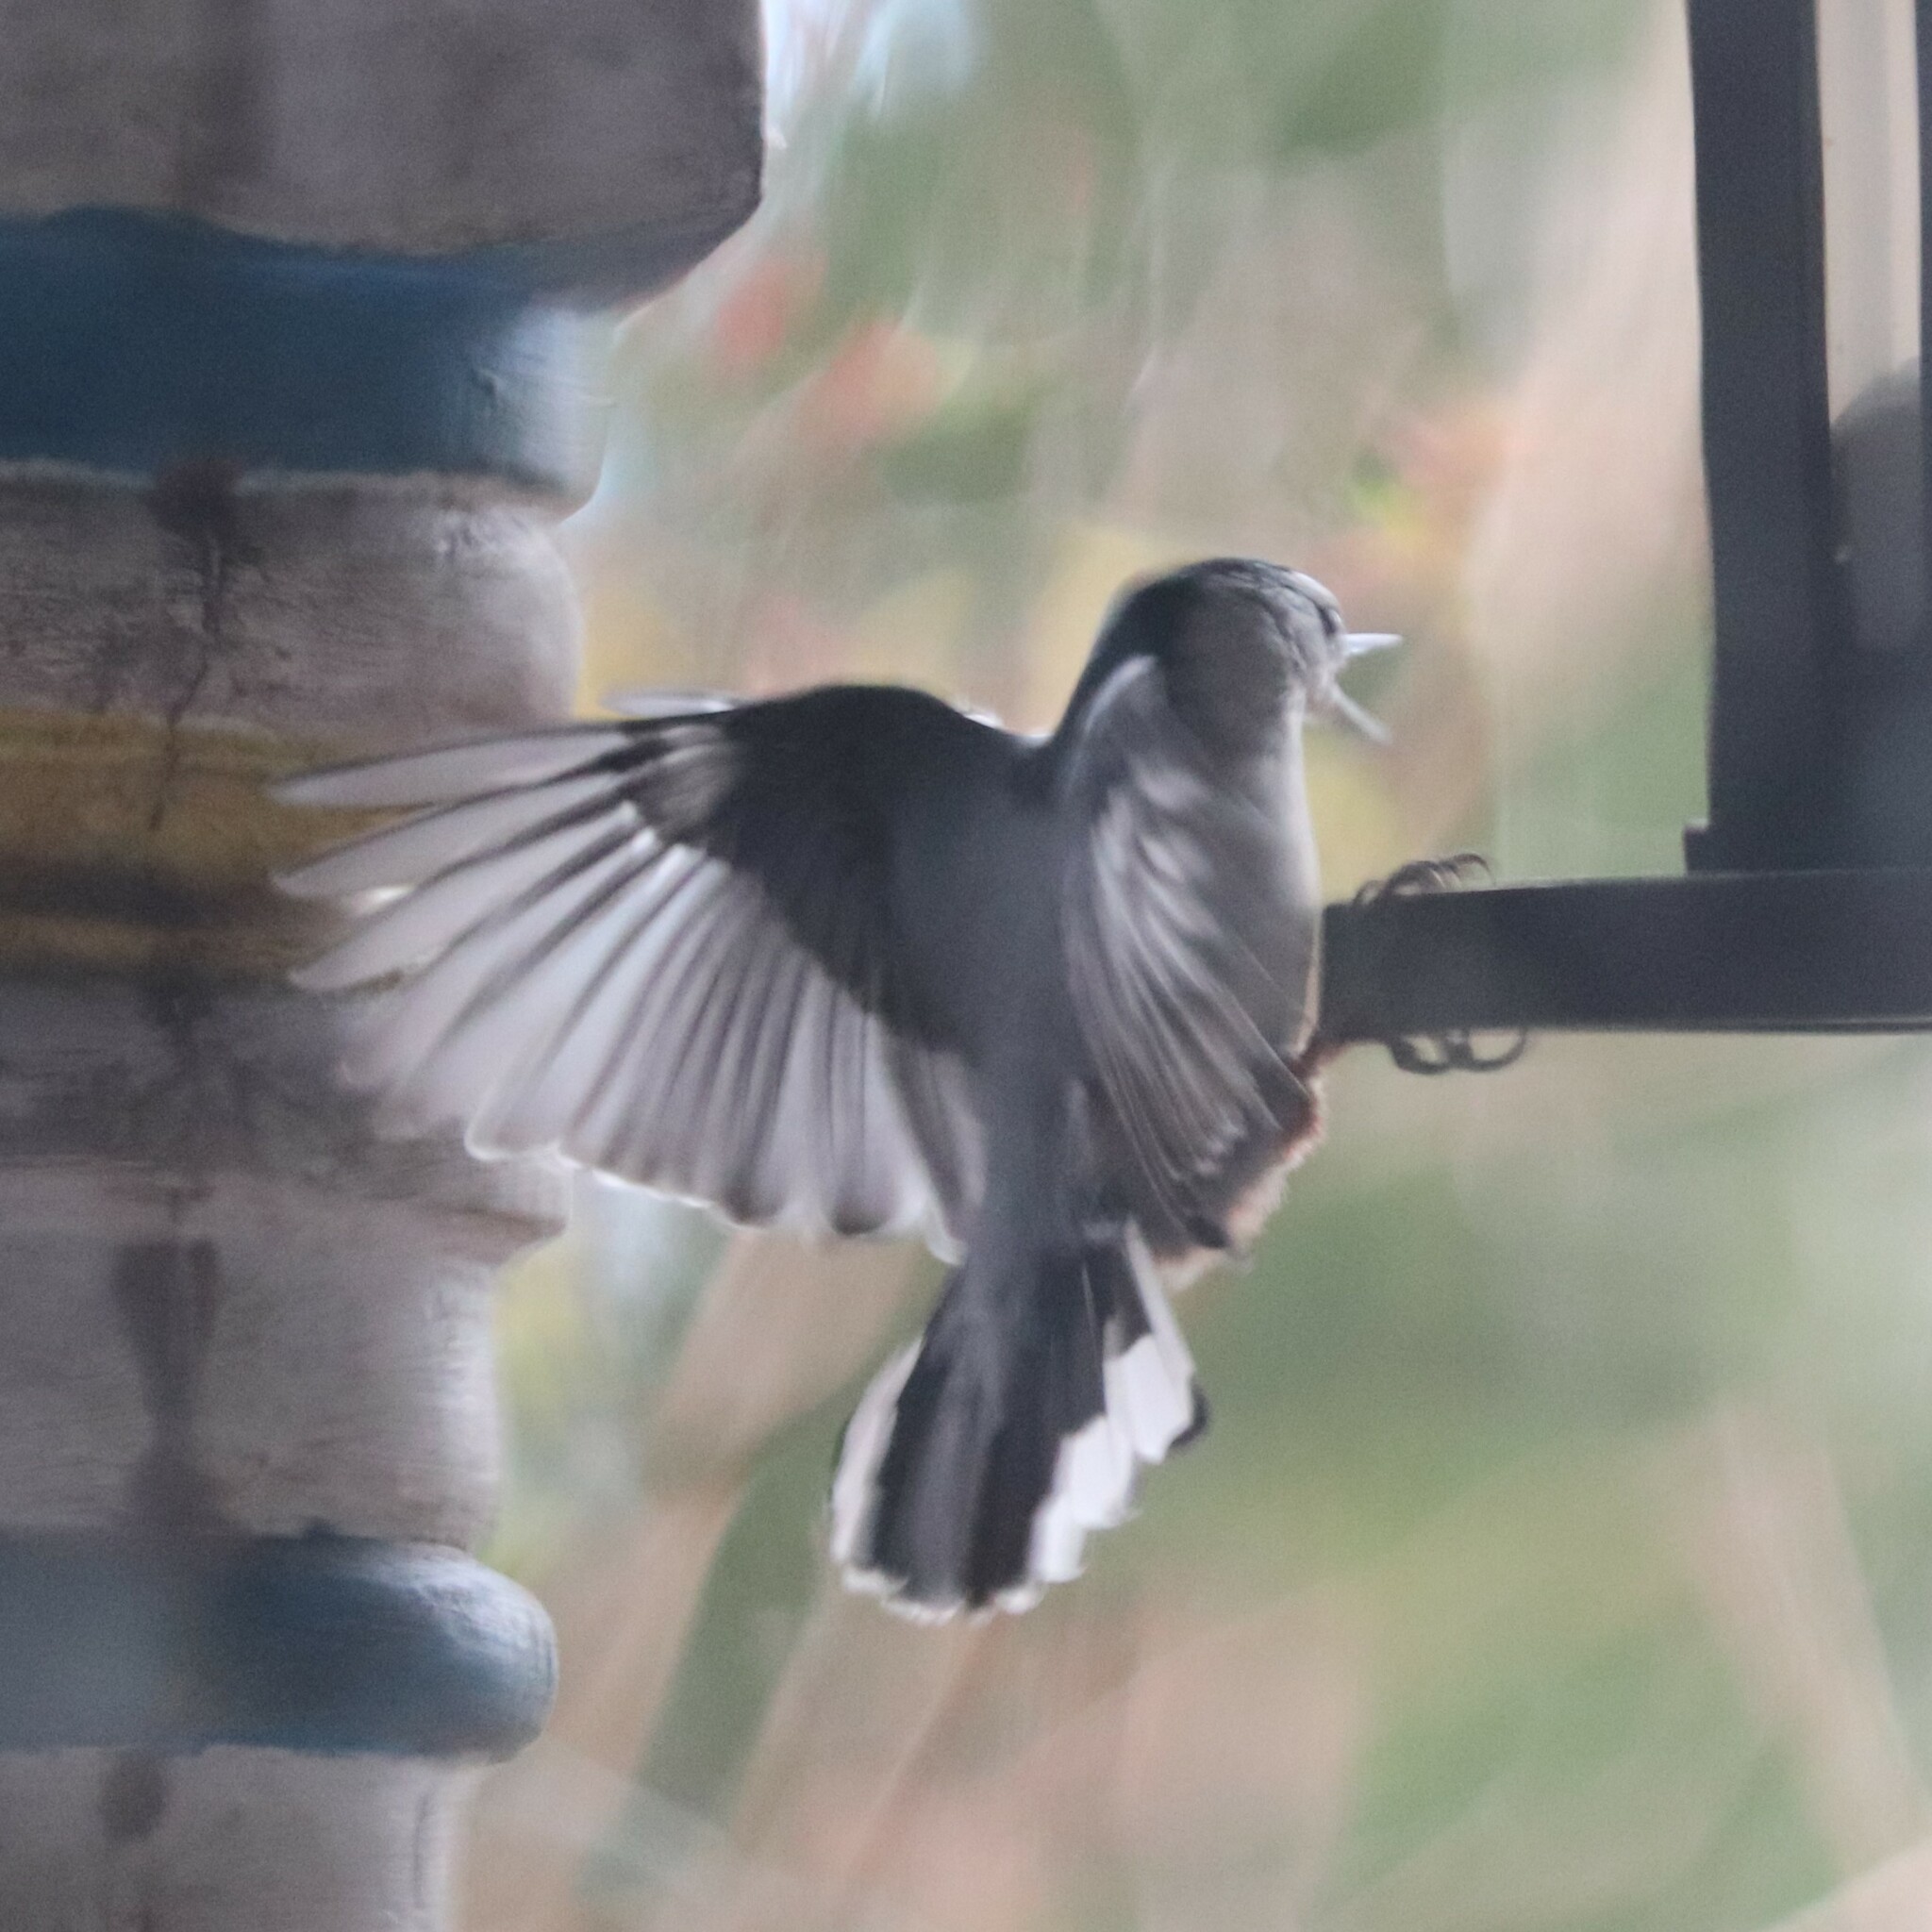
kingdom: Animalia
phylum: Chordata
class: Aves
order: Passeriformes
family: Sittidae
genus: Sitta
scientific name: Sitta carolinensis
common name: White-breasted nuthatch
